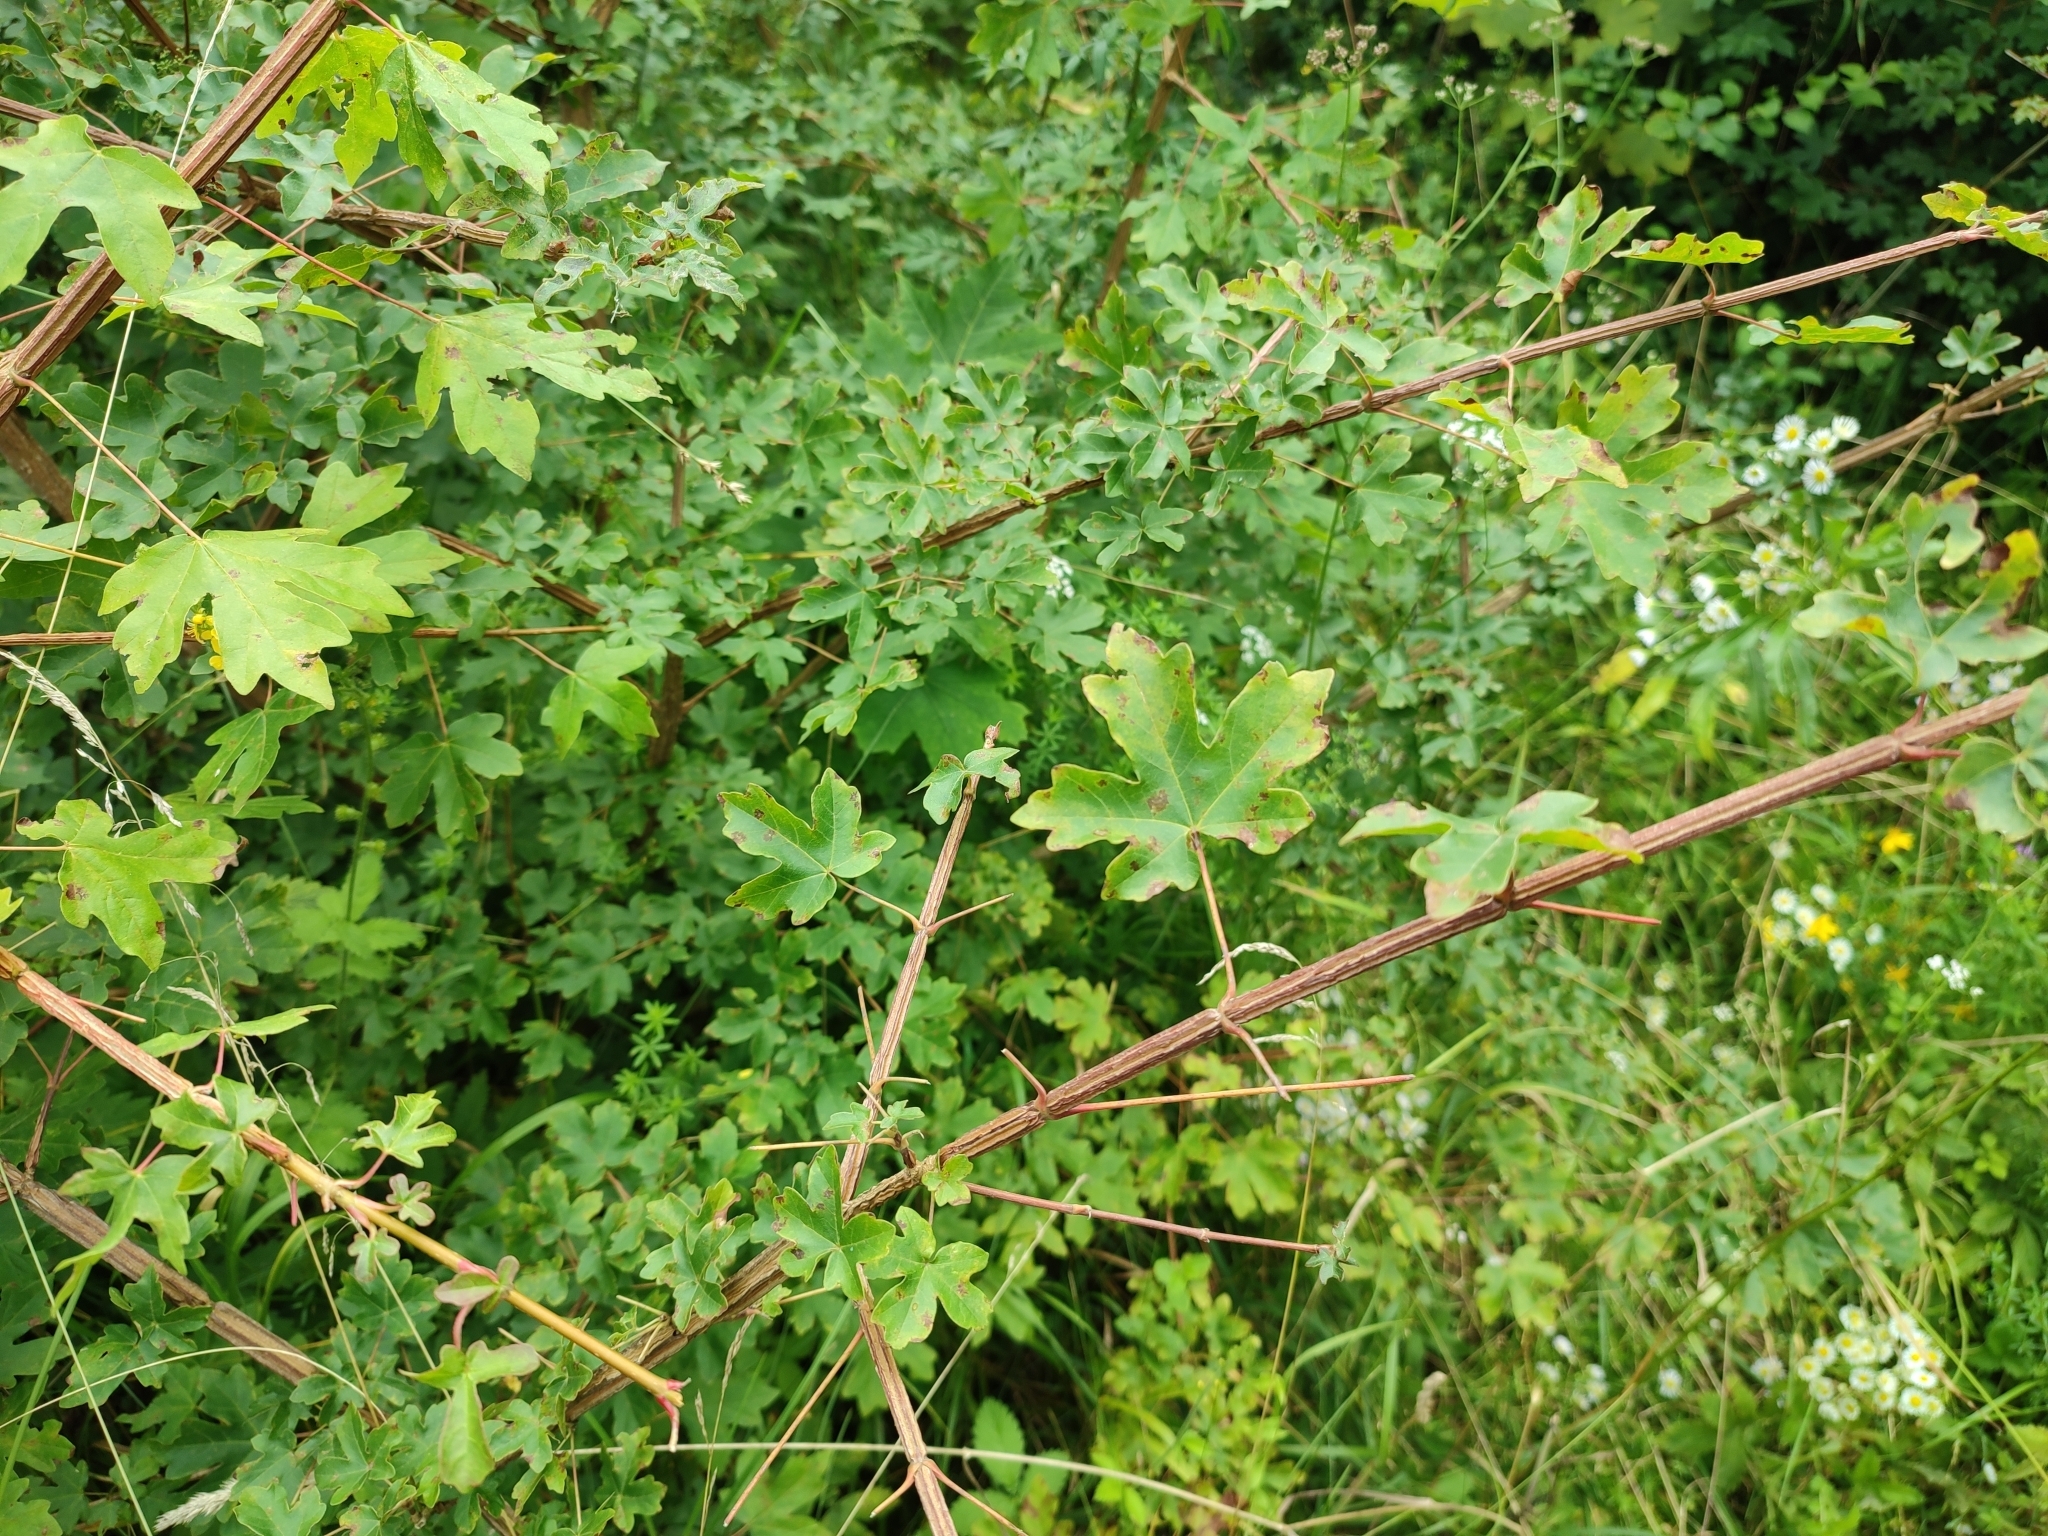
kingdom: Plantae
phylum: Tracheophyta
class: Magnoliopsida
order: Sapindales
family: Sapindaceae
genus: Acer
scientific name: Acer campestre
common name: Field maple
